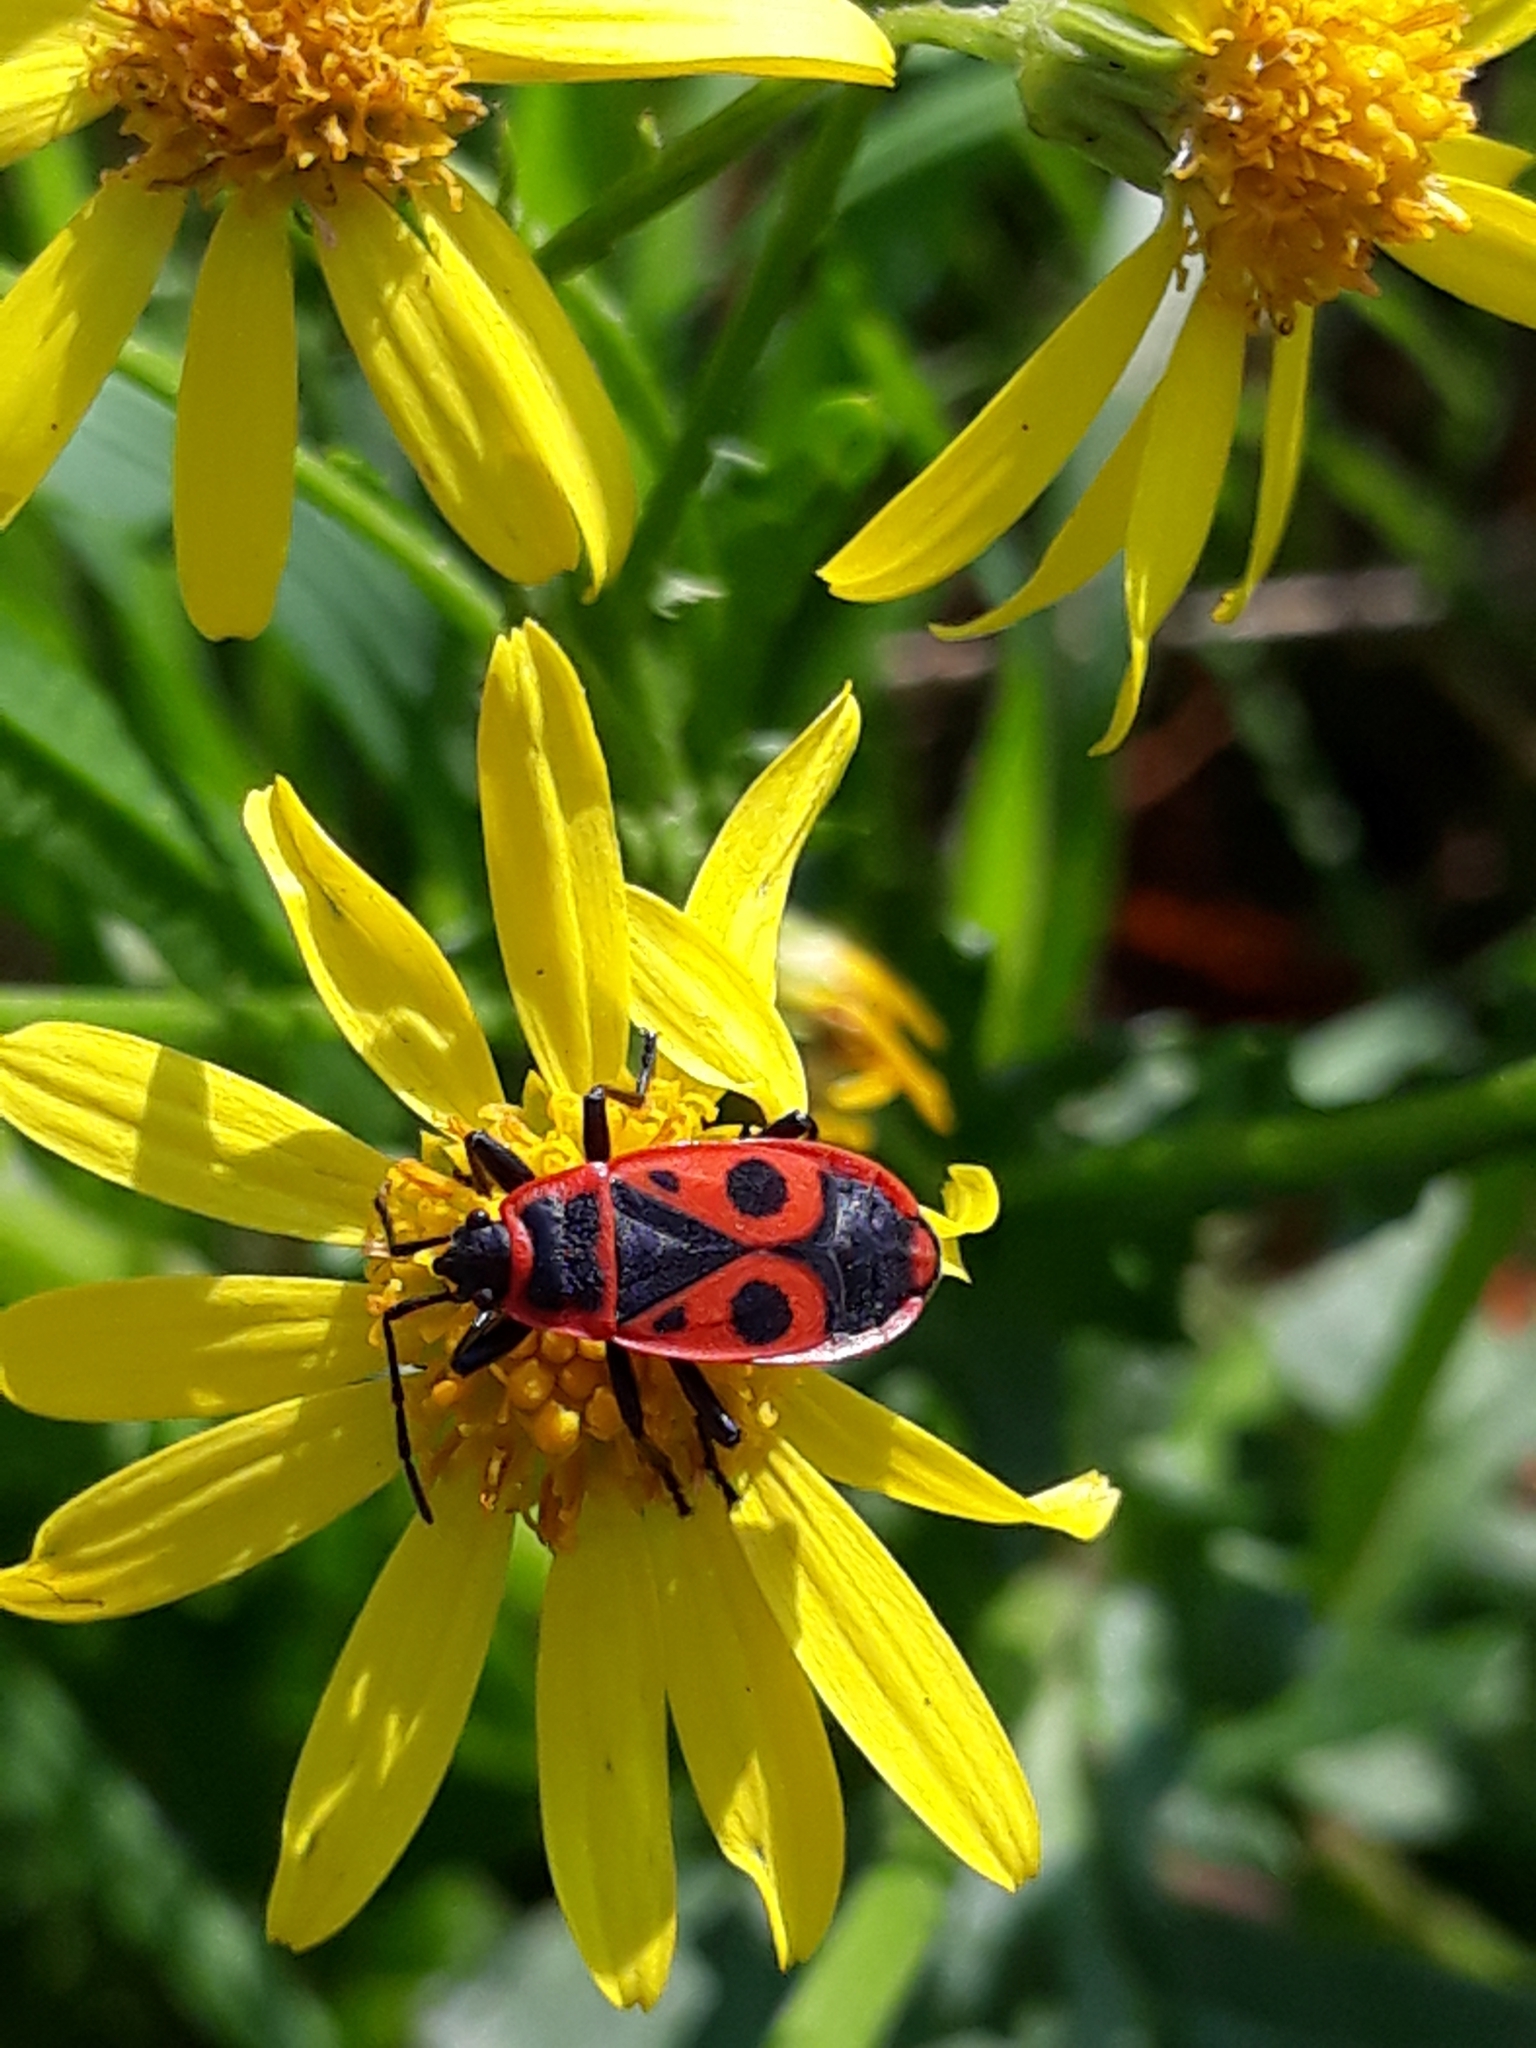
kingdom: Animalia
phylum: Arthropoda
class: Insecta
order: Hemiptera
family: Pyrrhocoridae
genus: Pyrrhocoris
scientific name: Pyrrhocoris apterus
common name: Firebug
